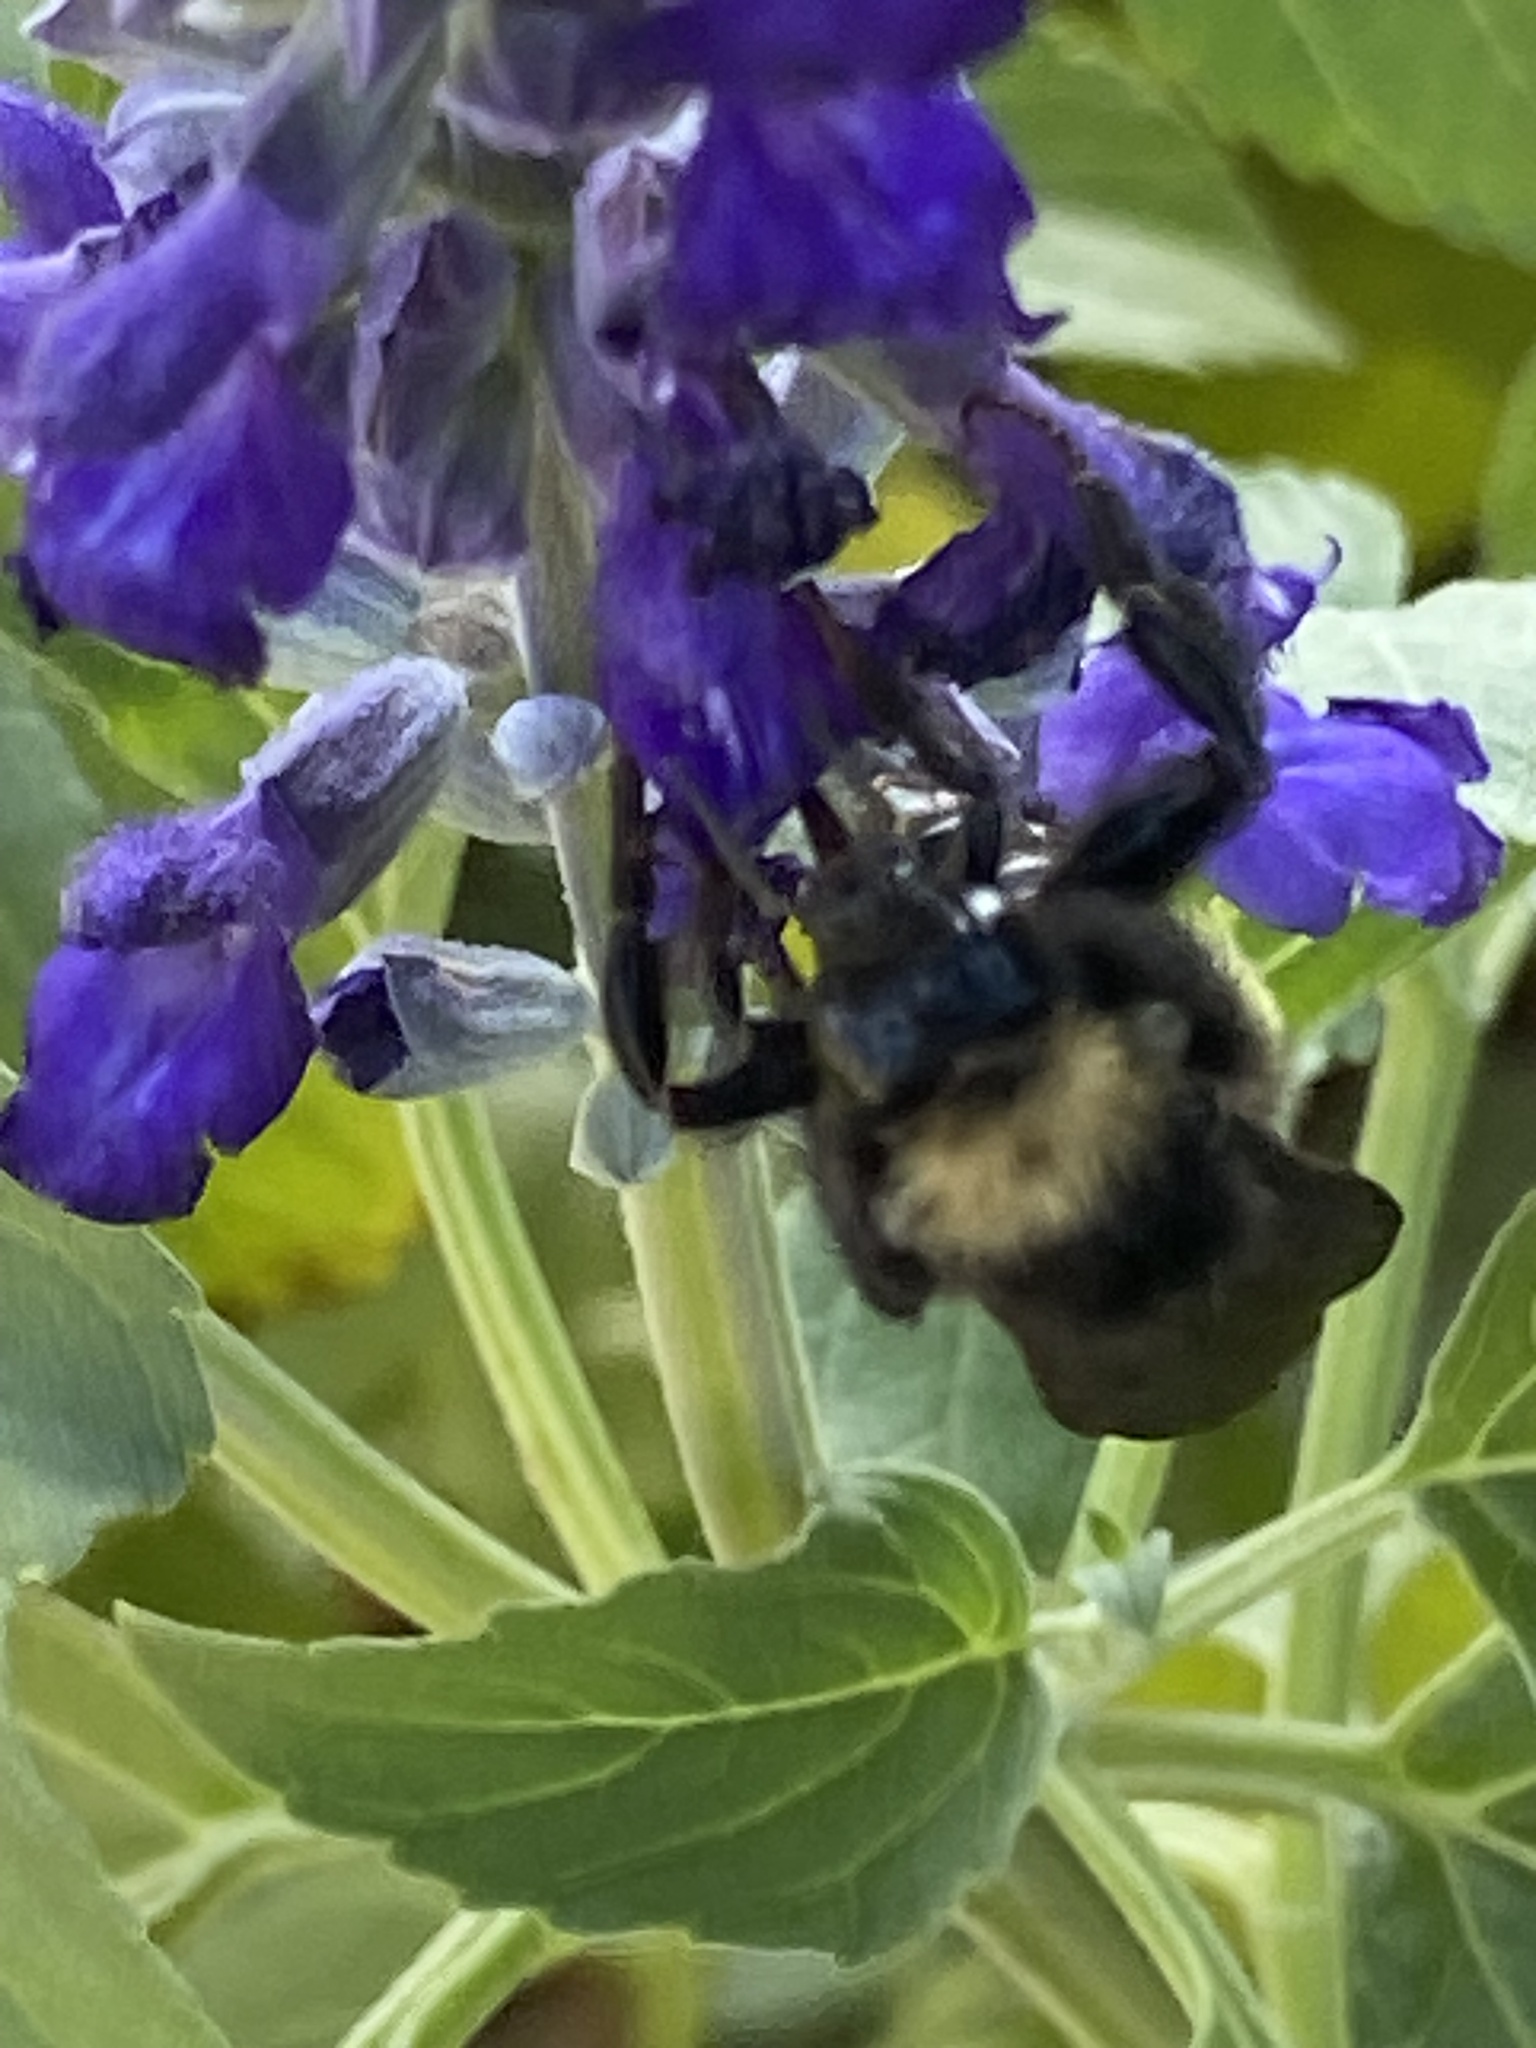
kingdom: Animalia
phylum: Arthropoda
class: Insecta
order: Hymenoptera
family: Apidae
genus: Bombus
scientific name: Bombus pensylvanicus
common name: Bumble bee
